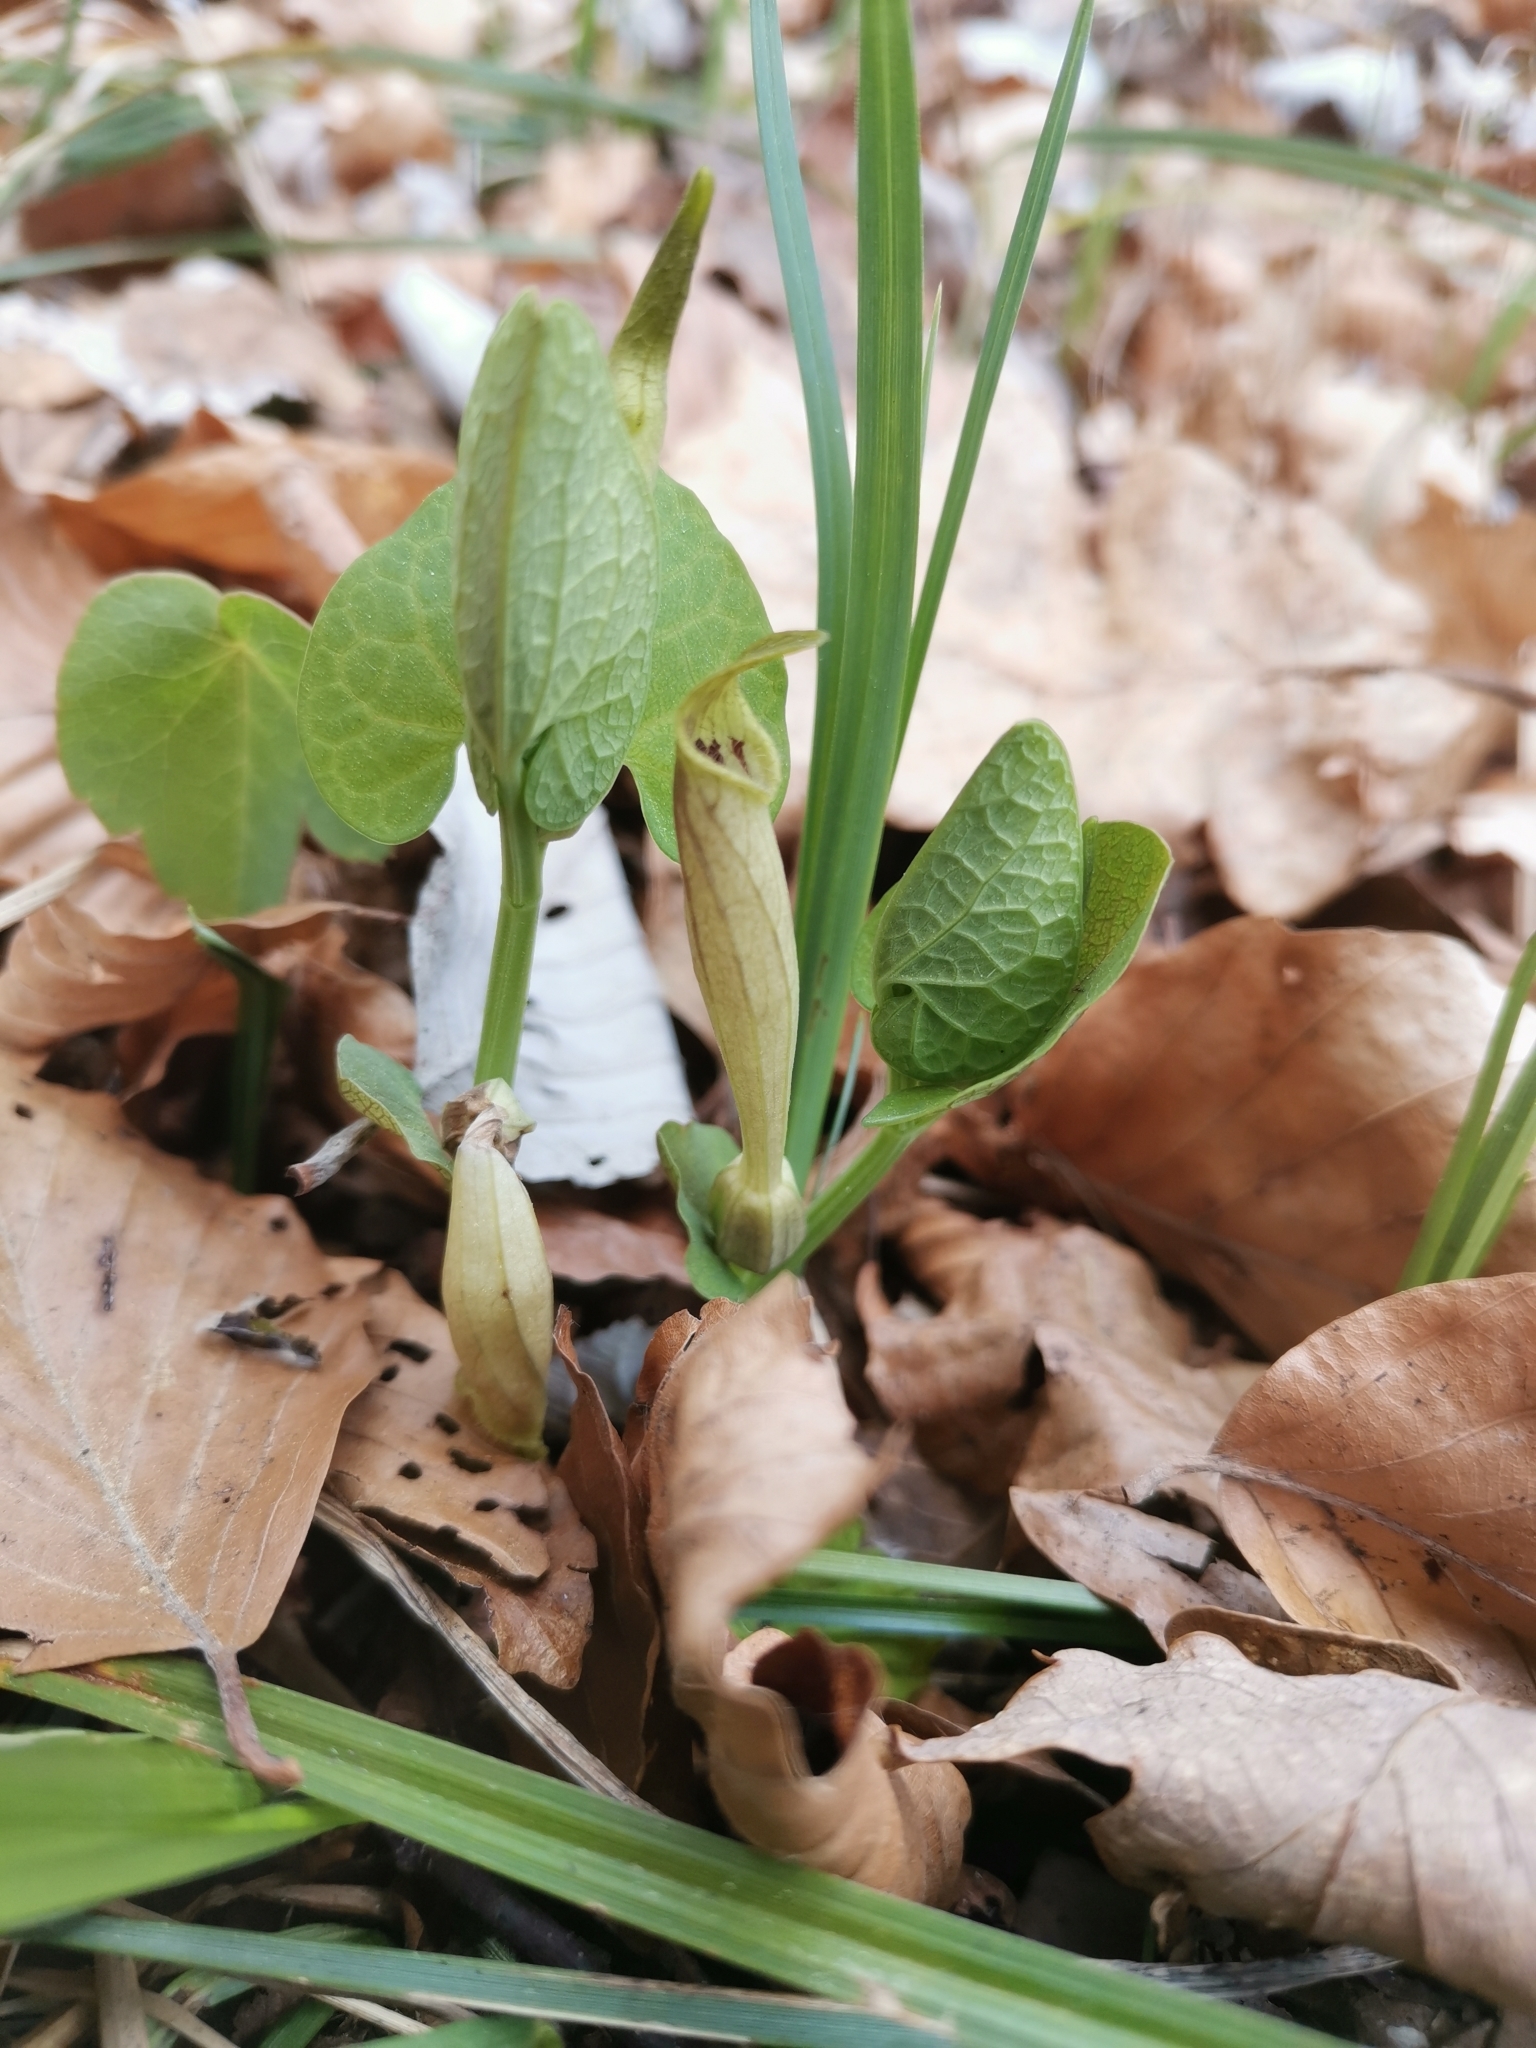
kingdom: Plantae
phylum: Tracheophyta
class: Magnoliopsida
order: Piperales
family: Aristolochiaceae
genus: Aristolochia
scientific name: Aristolochia lutea
